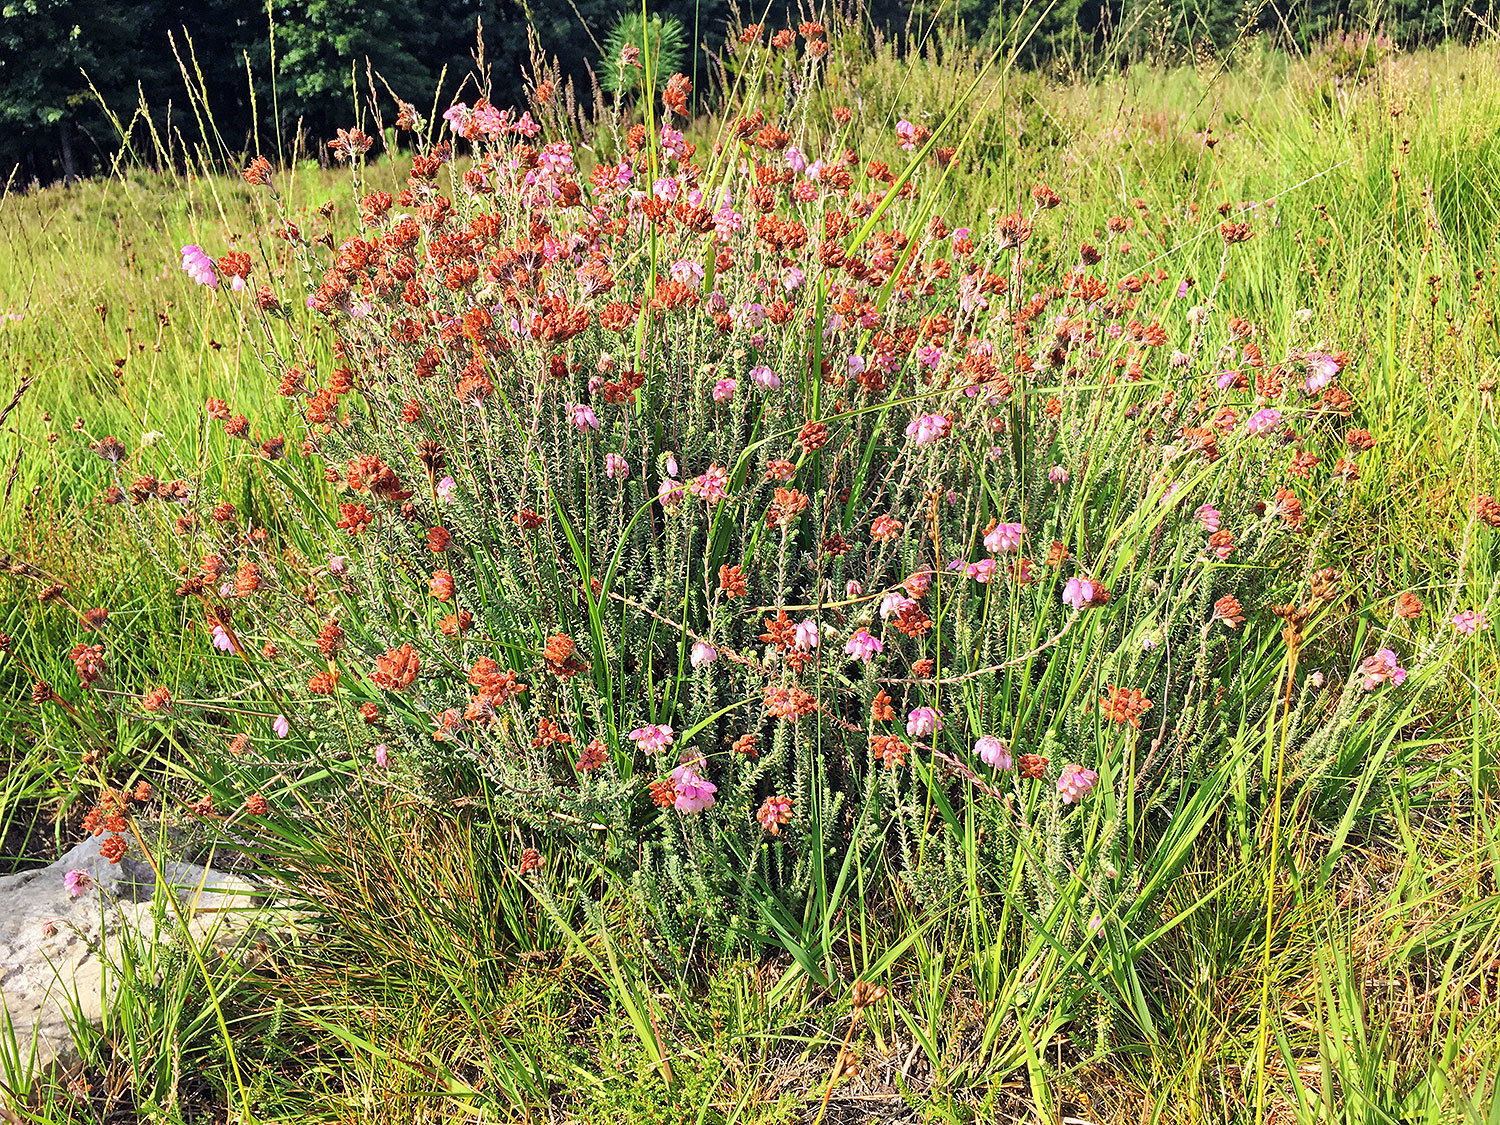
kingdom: Plantae
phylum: Tracheophyta
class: Magnoliopsida
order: Ericales
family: Ericaceae
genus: Erica
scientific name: Erica tetralix
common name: Cross-leaved heath
